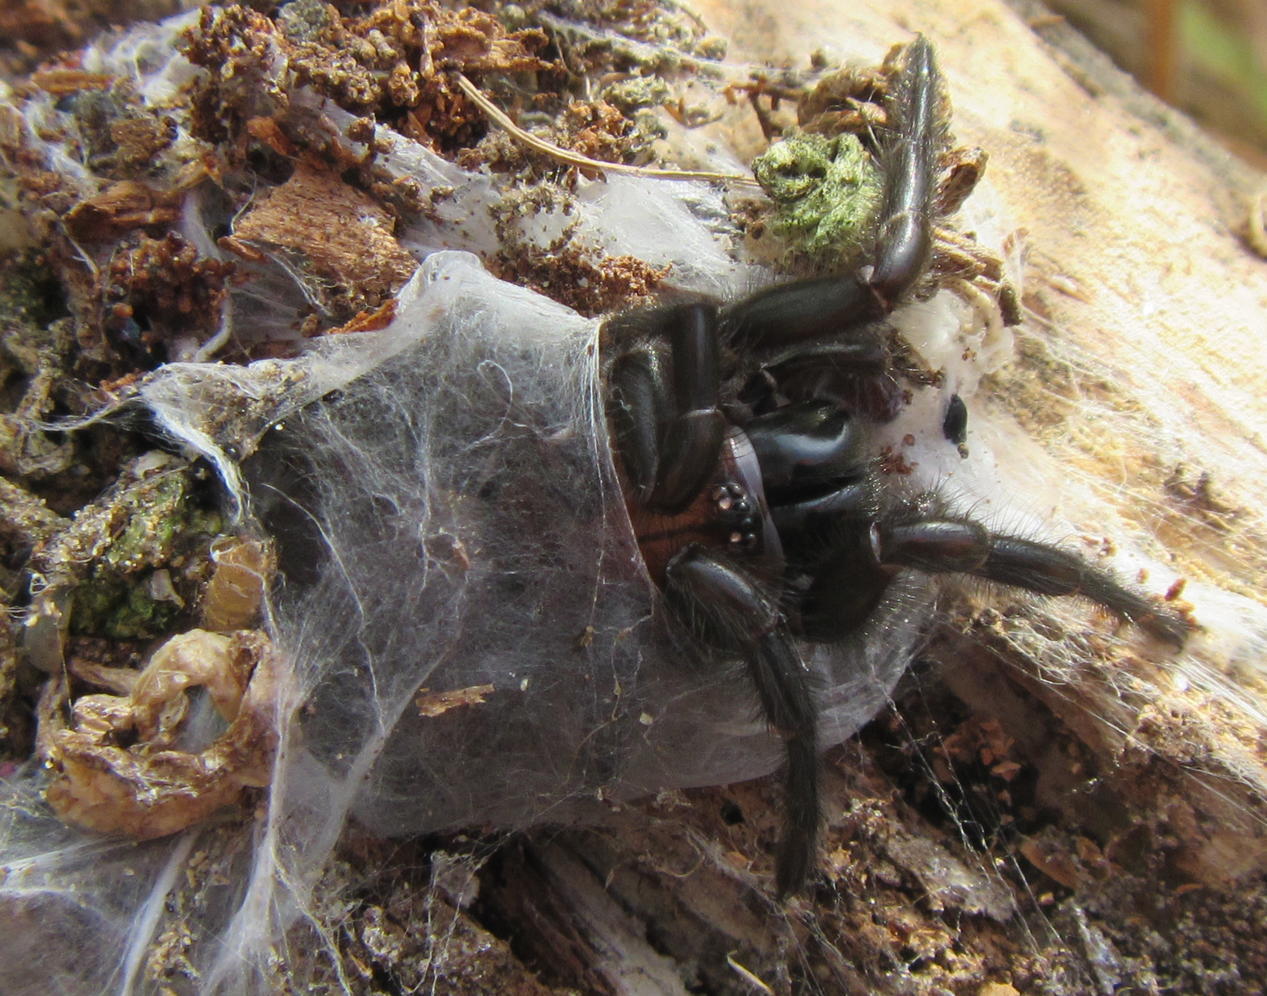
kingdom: Animalia
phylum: Arthropoda
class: Arachnida
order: Araneae
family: Porrhothelidae
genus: Porrhothele
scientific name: Porrhothele antipodiana
